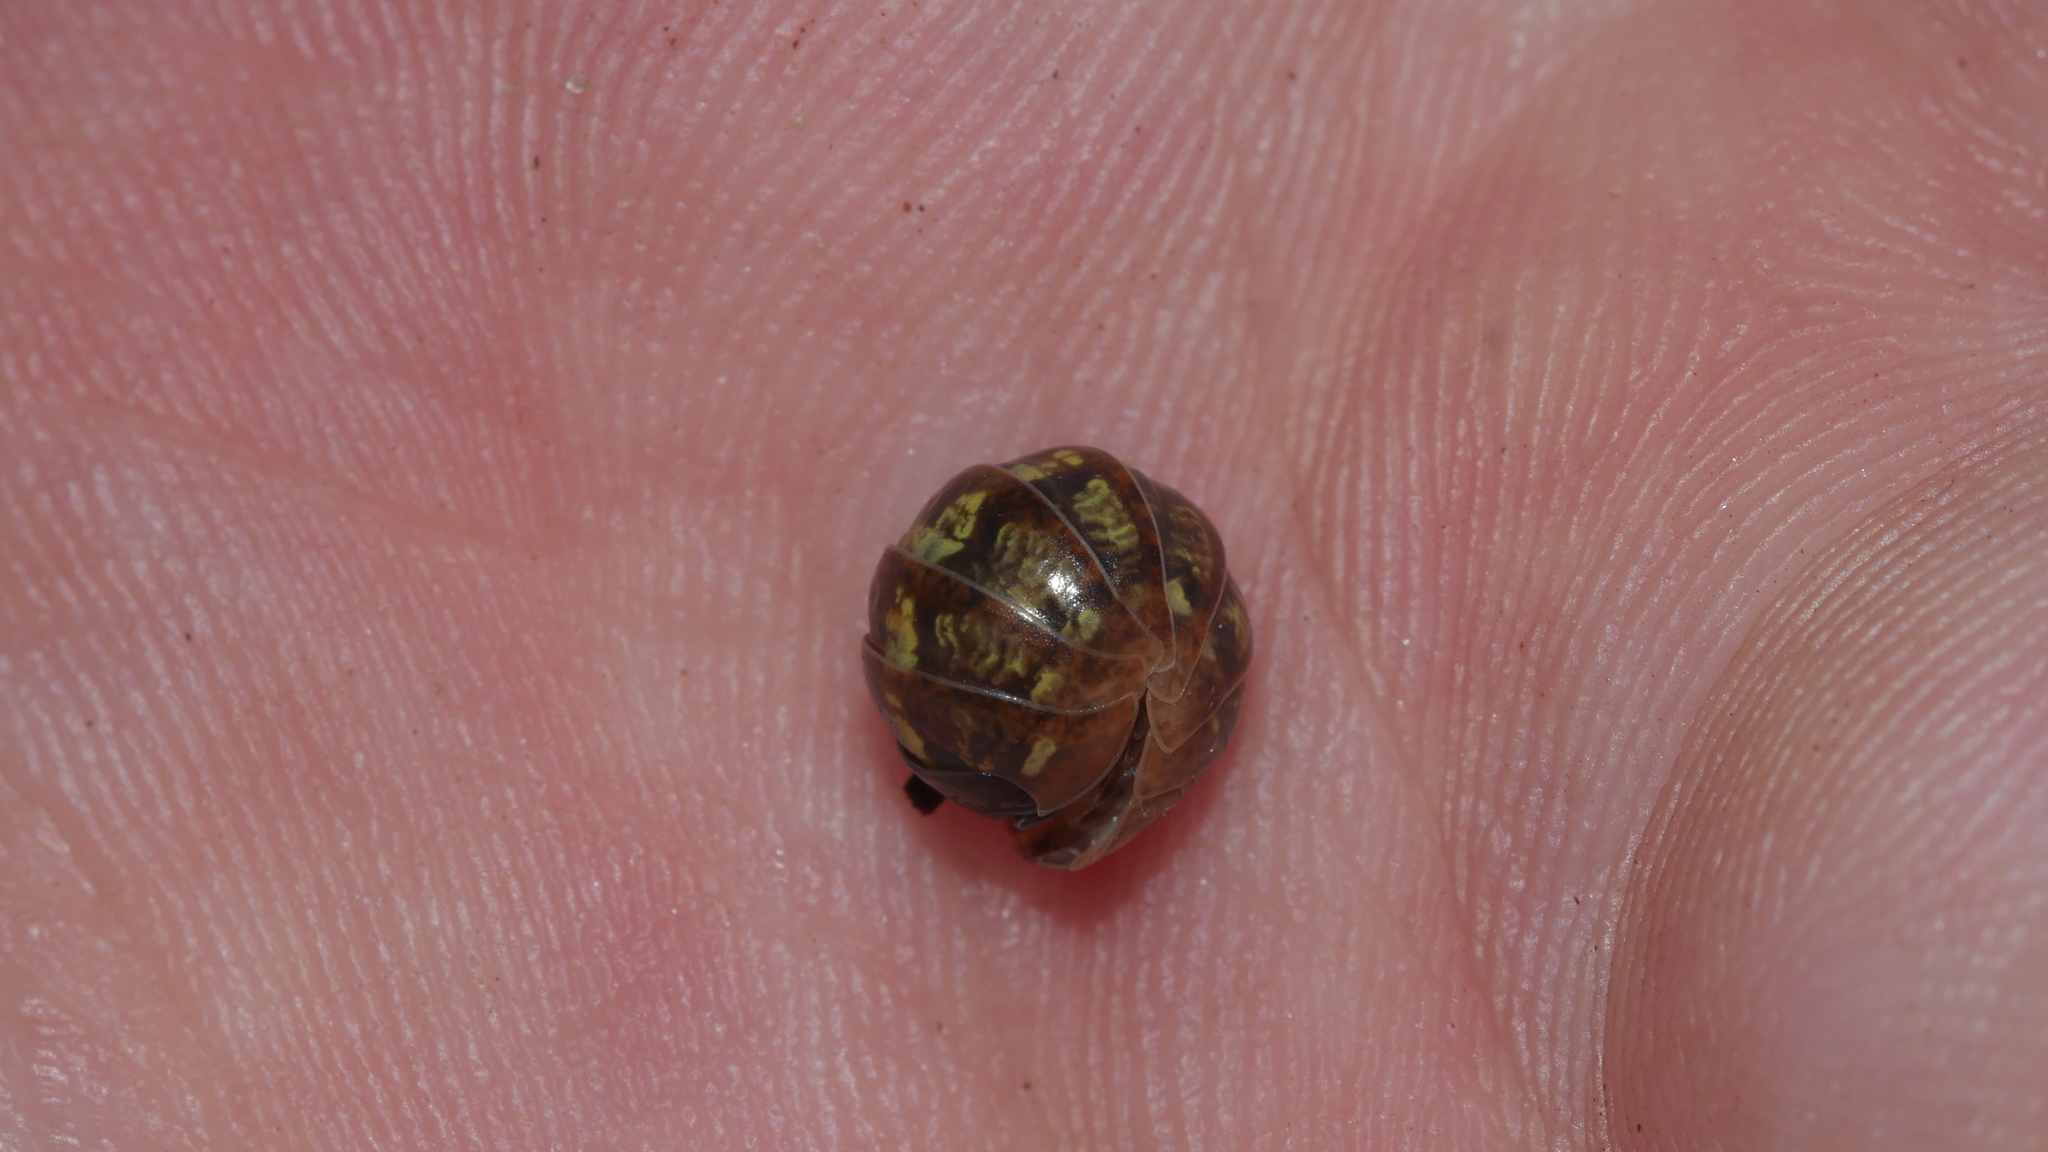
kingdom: Animalia
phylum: Arthropoda
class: Malacostraca
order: Isopoda
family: Armadillidiidae
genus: Armadillidium
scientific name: Armadillidium vulgare
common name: Common pill woodlouse
